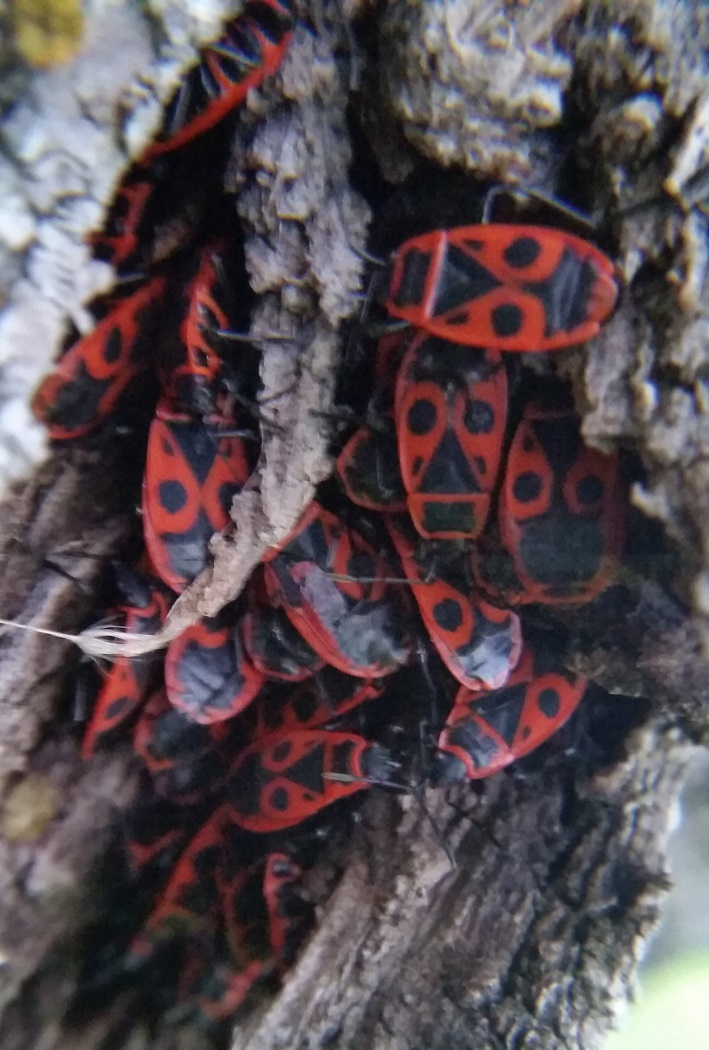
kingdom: Animalia
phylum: Arthropoda
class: Insecta
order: Hemiptera
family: Pyrrhocoridae
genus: Pyrrhocoris
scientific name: Pyrrhocoris apterus
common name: Firebug
